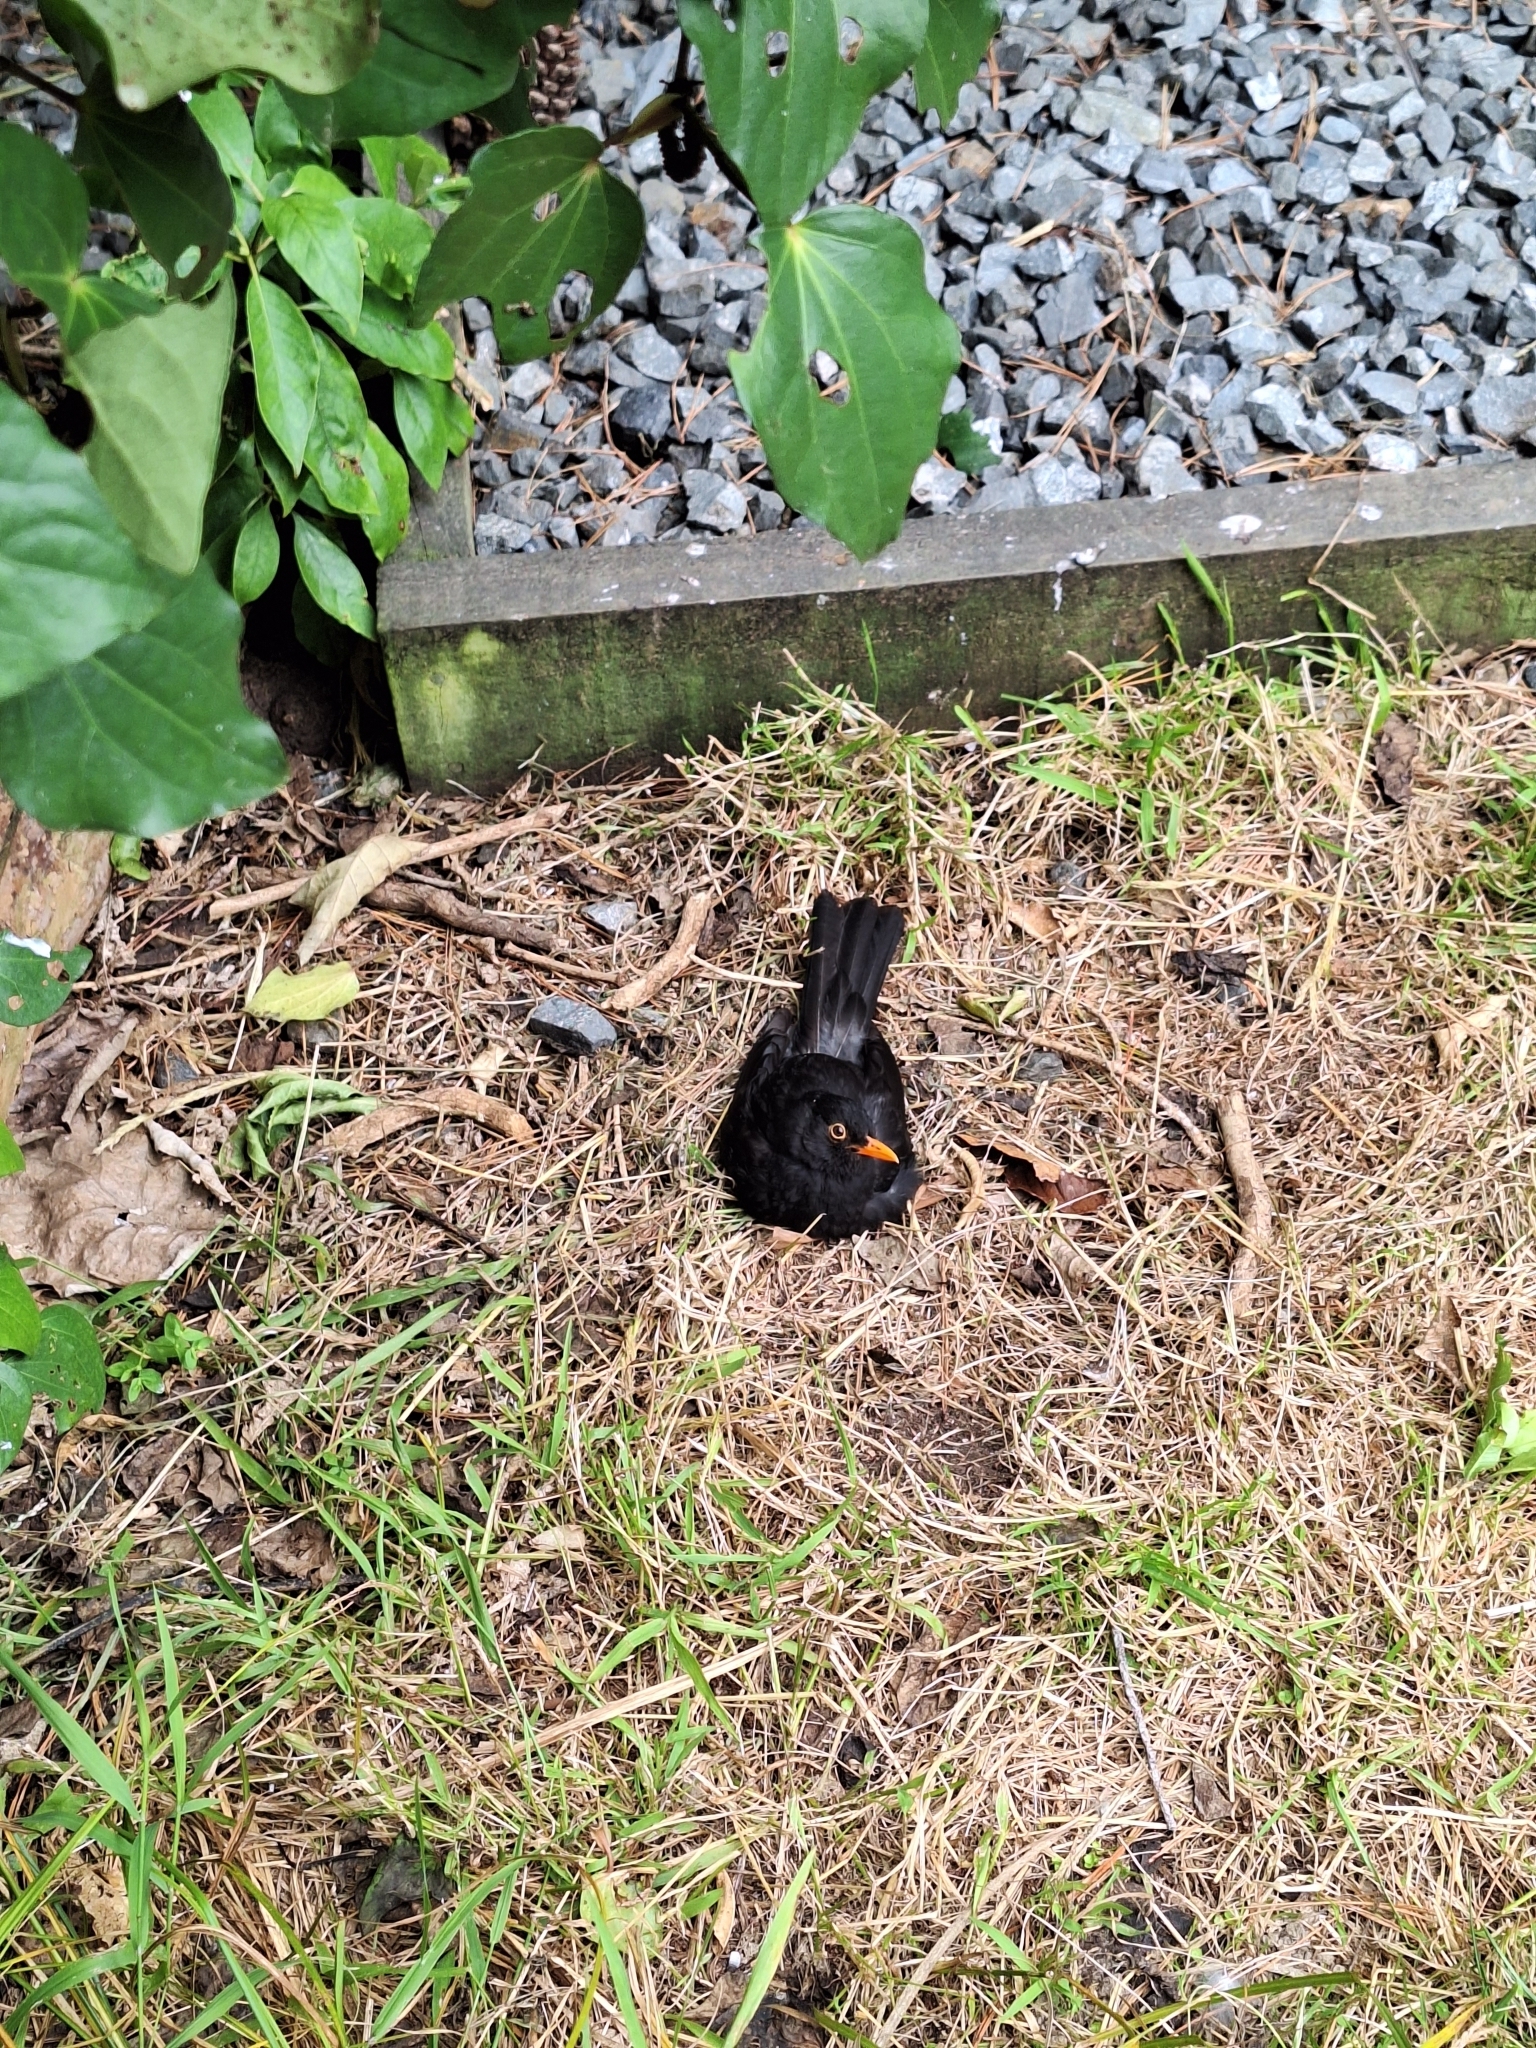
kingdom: Animalia
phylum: Chordata
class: Aves
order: Passeriformes
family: Turdidae
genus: Turdus
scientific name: Turdus merula
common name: Common blackbird
